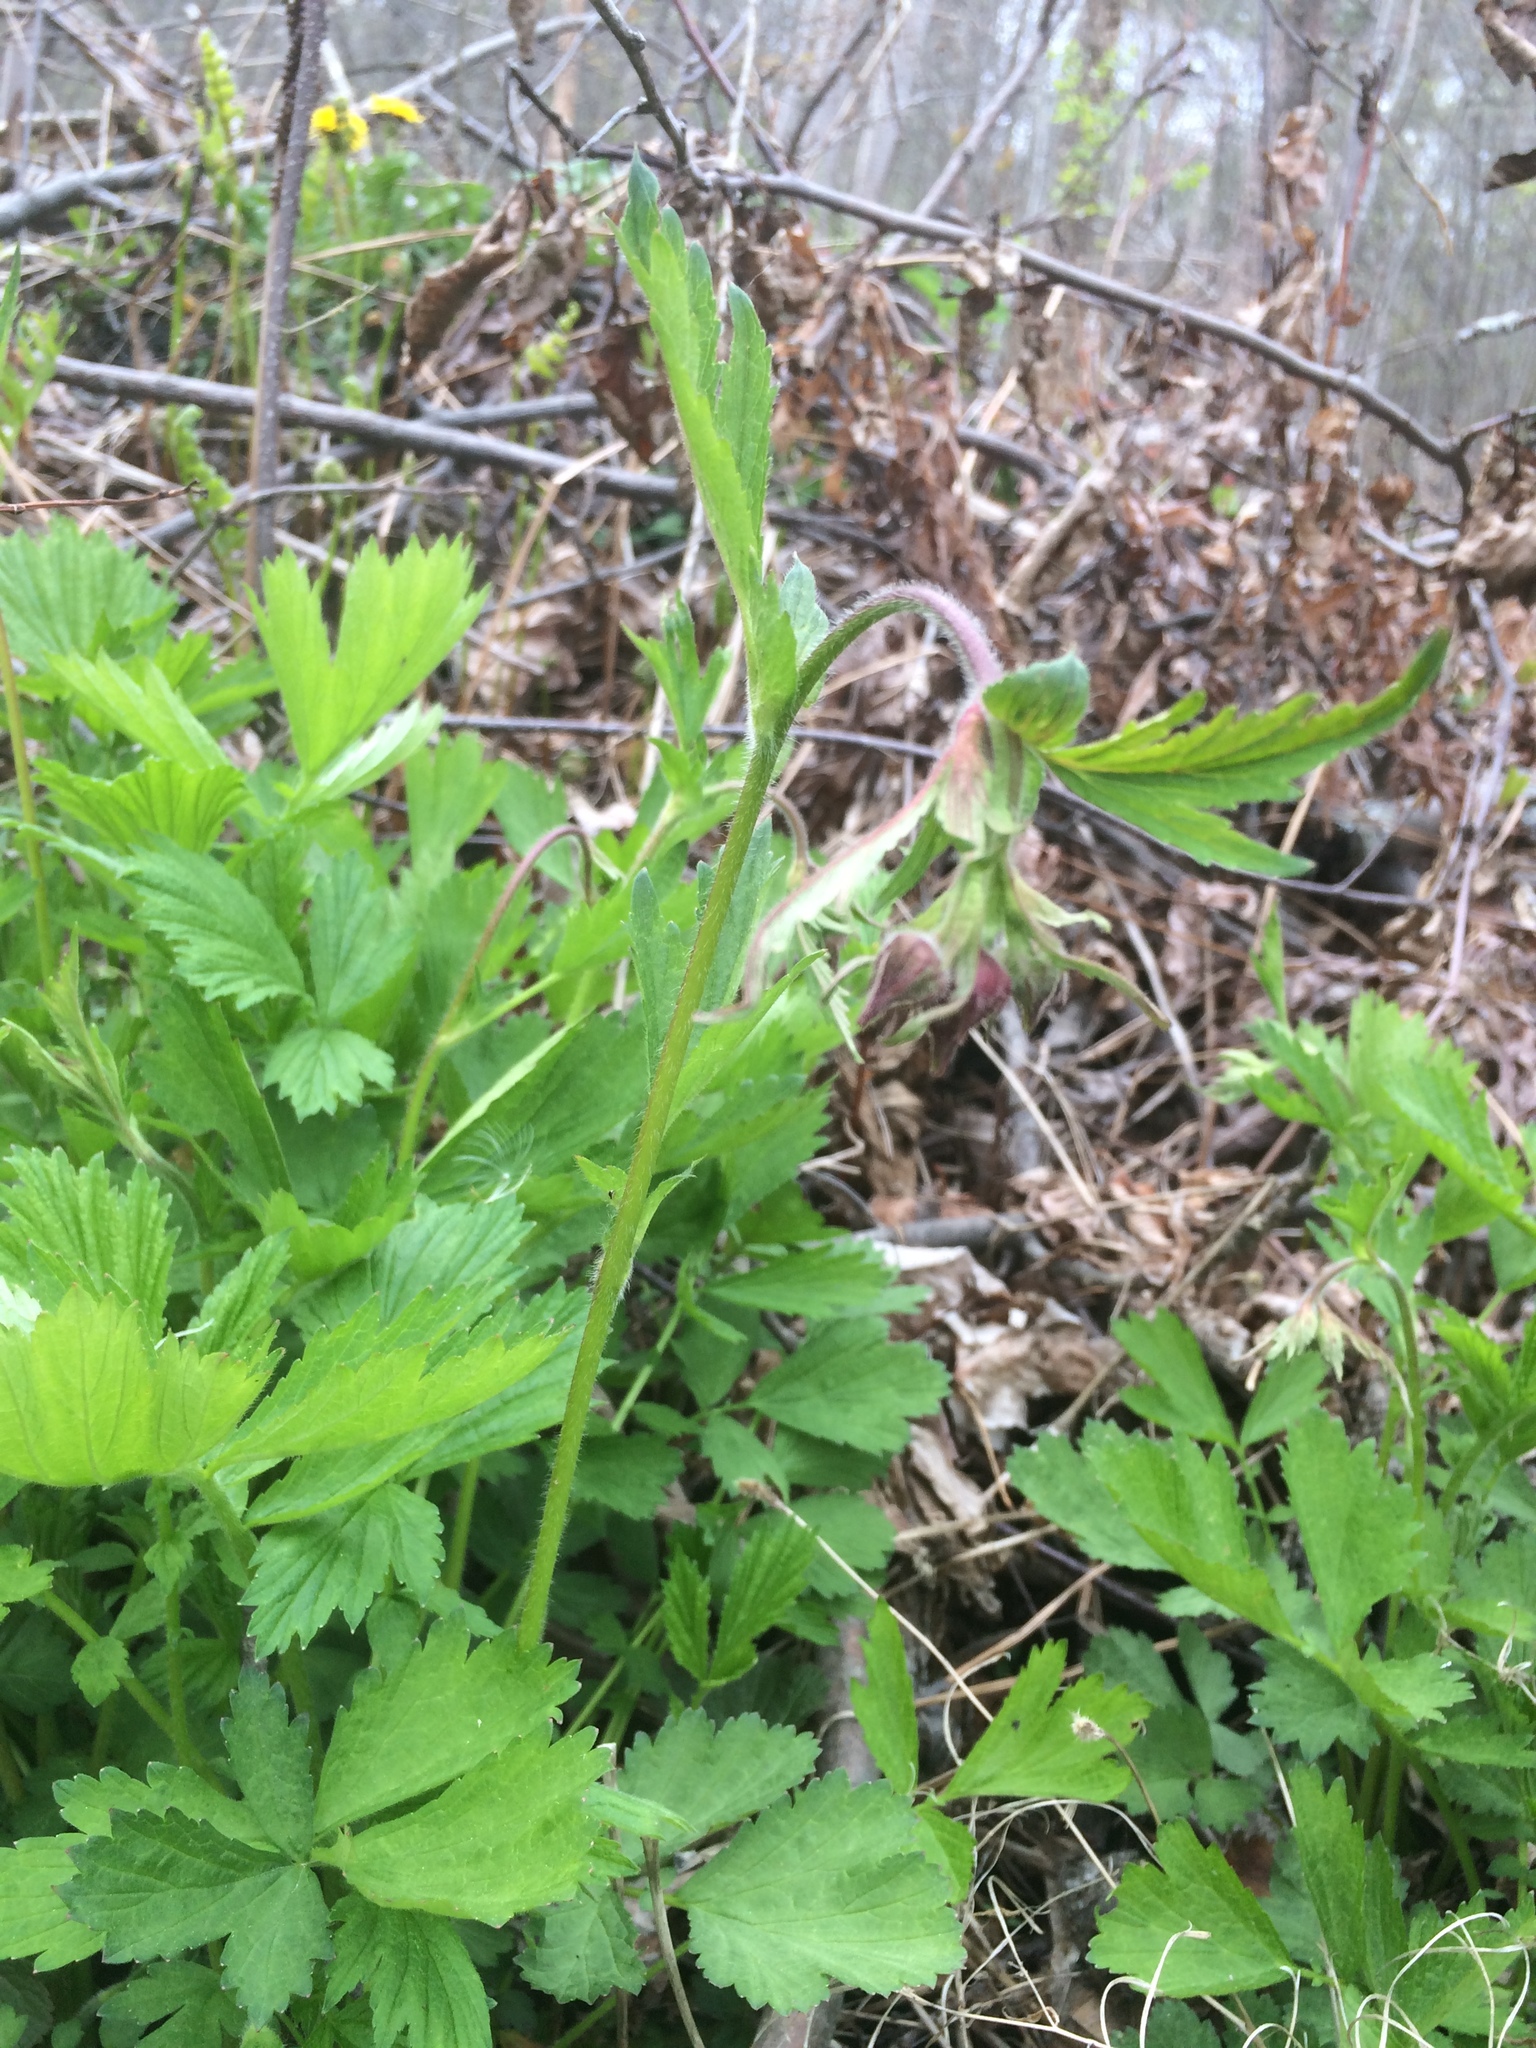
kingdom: Plantae
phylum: Tracheophyta
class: Magnoliopsida
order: Rosales
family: Rosaceae
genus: Geum
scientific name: Geum rivale
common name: Water avens
